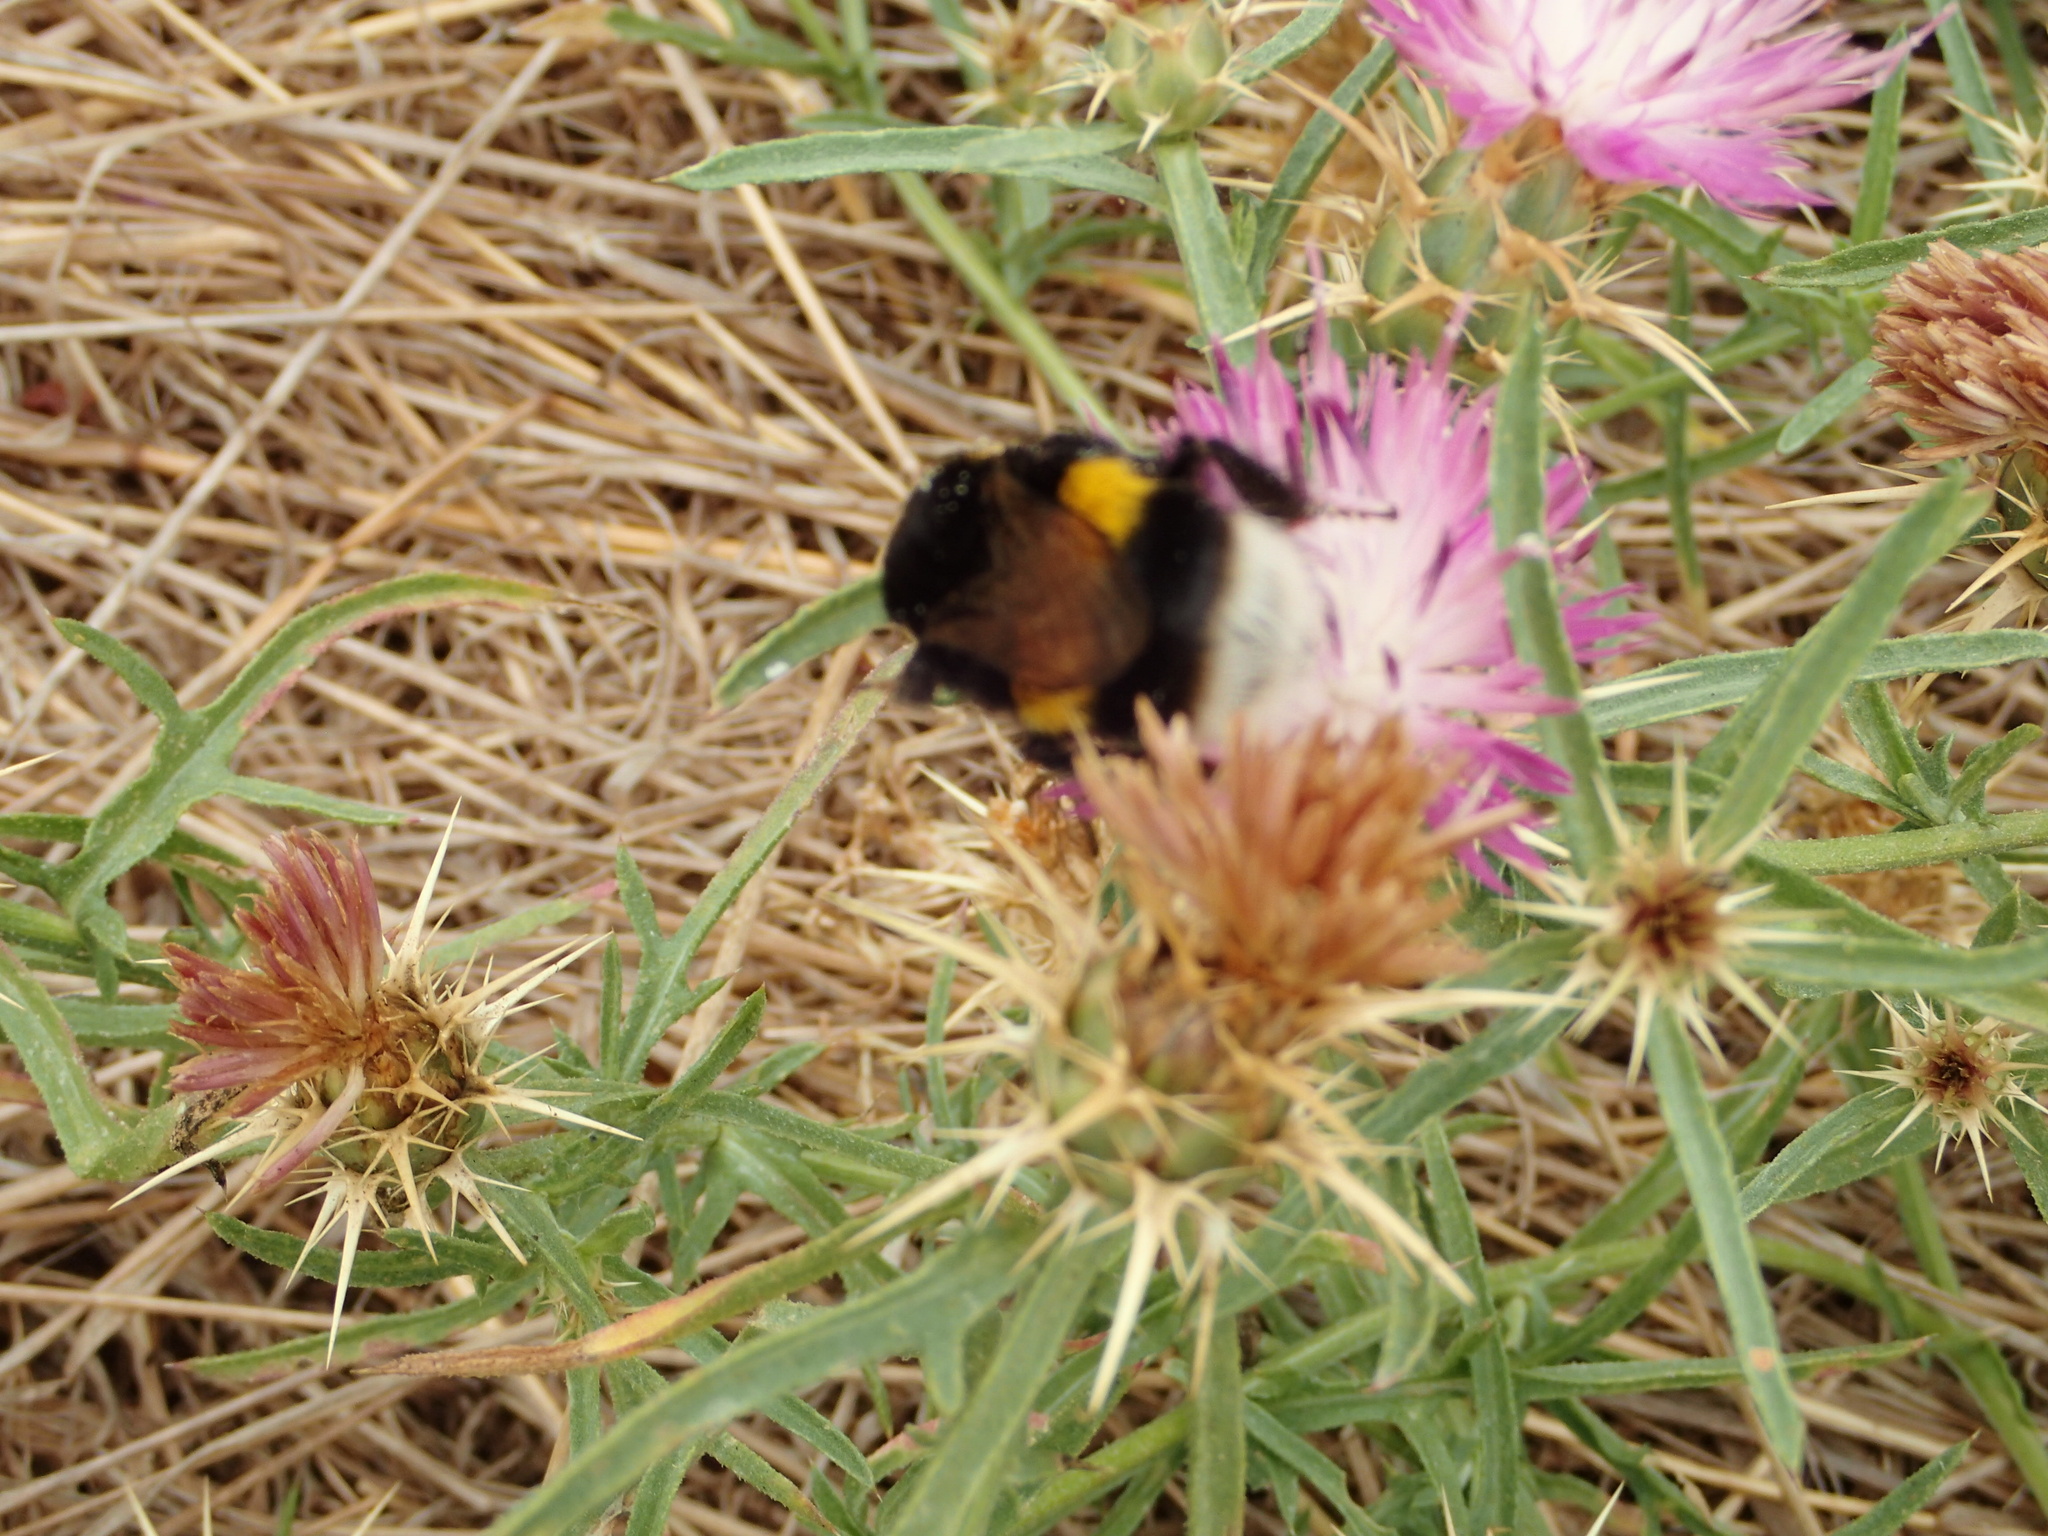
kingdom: Animalia
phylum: Arthropoda
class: Insecta
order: Hymenoptera
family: Apidae
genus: Bombus
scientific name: Bombus terrestris
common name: Buff-tailed bumblebee
